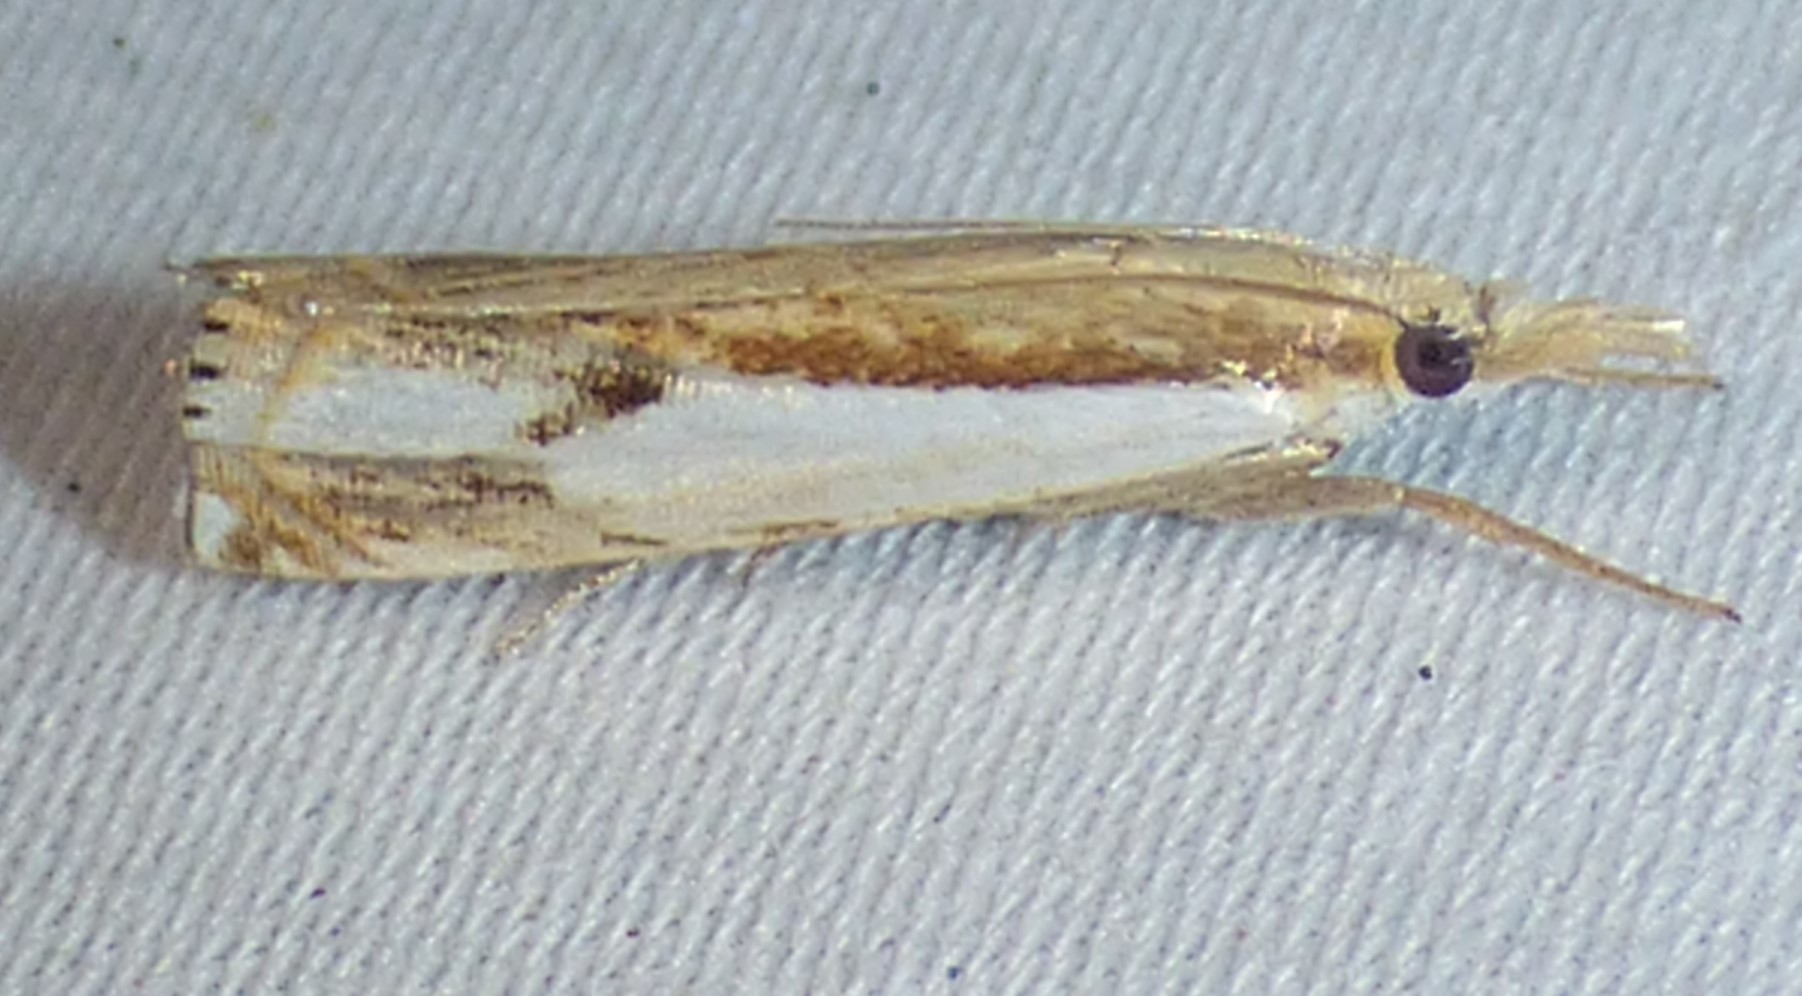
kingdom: Animalia
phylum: Arthropoda
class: Insecta
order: Lepidoptera
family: Crambidae
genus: Crambus
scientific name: Crambus agitatellus
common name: Double-banded grass-veneer
